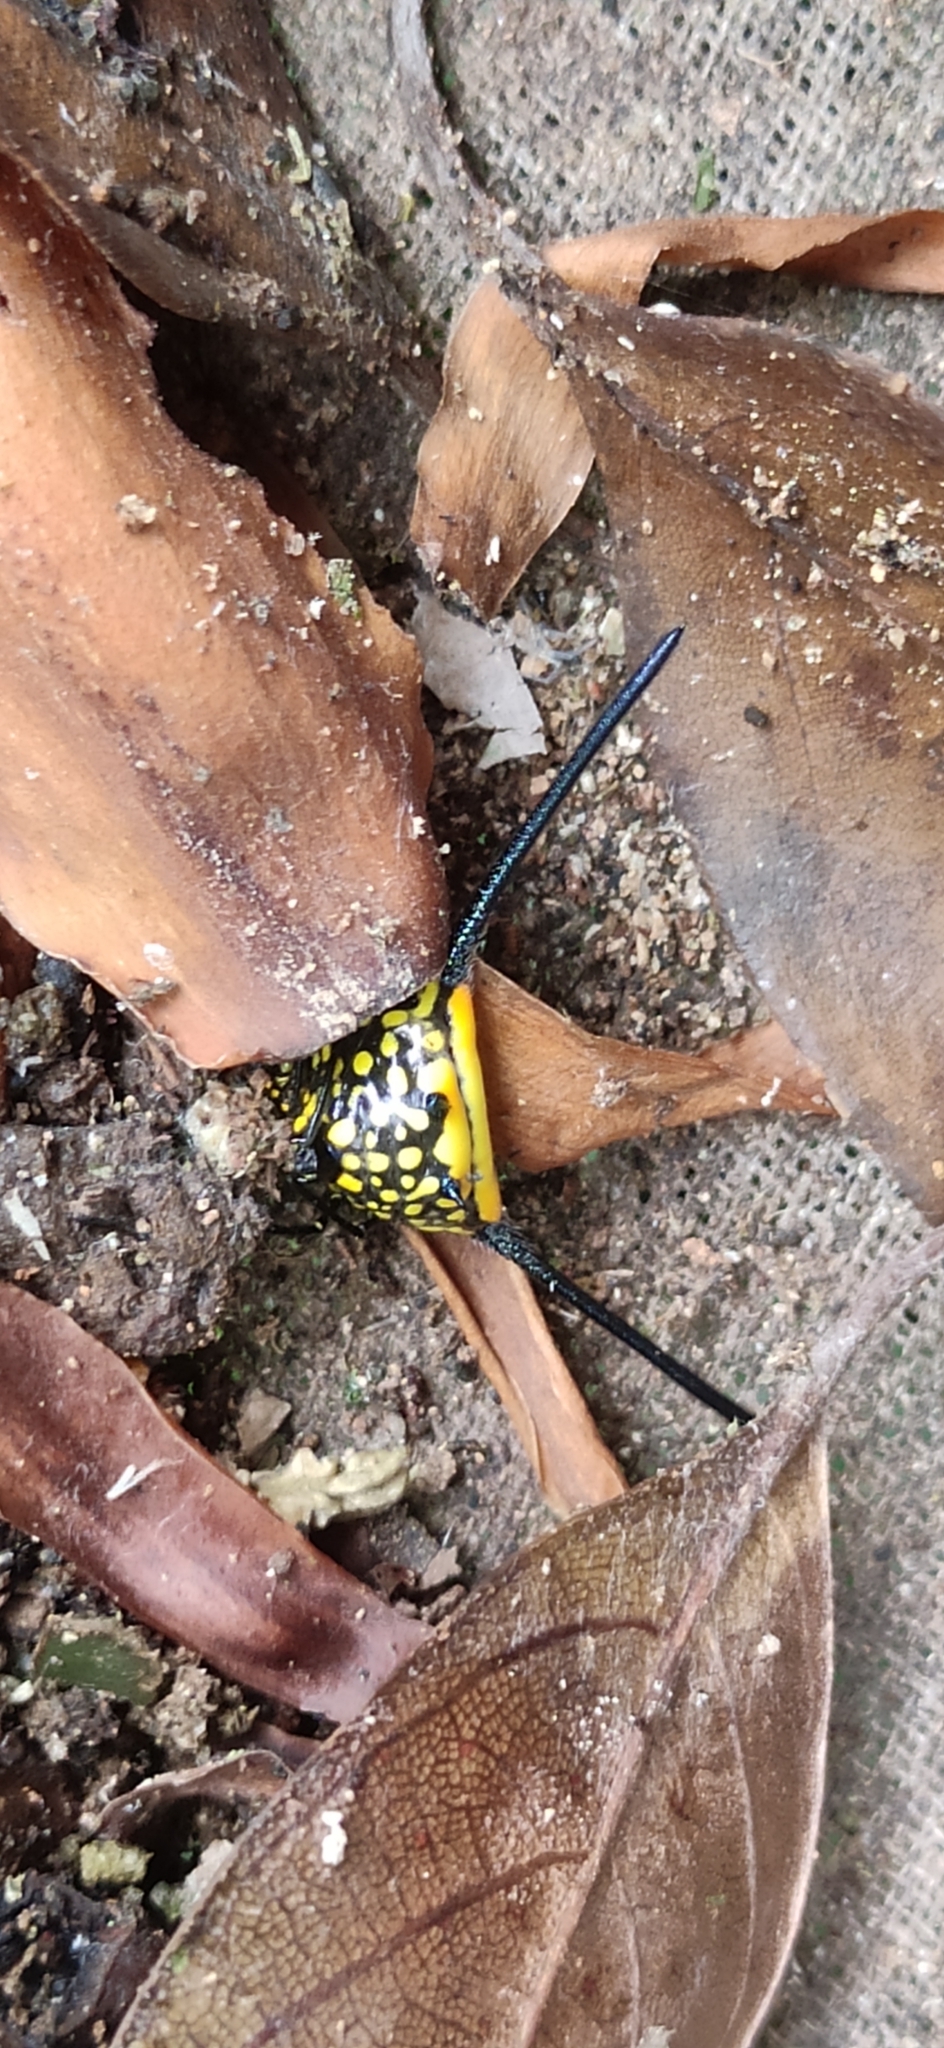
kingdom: Animalia
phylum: Arthropoda
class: Arachnida
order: Araneae
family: Araneidae
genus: Gasteracantha
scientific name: Gasteracantha dalyi
